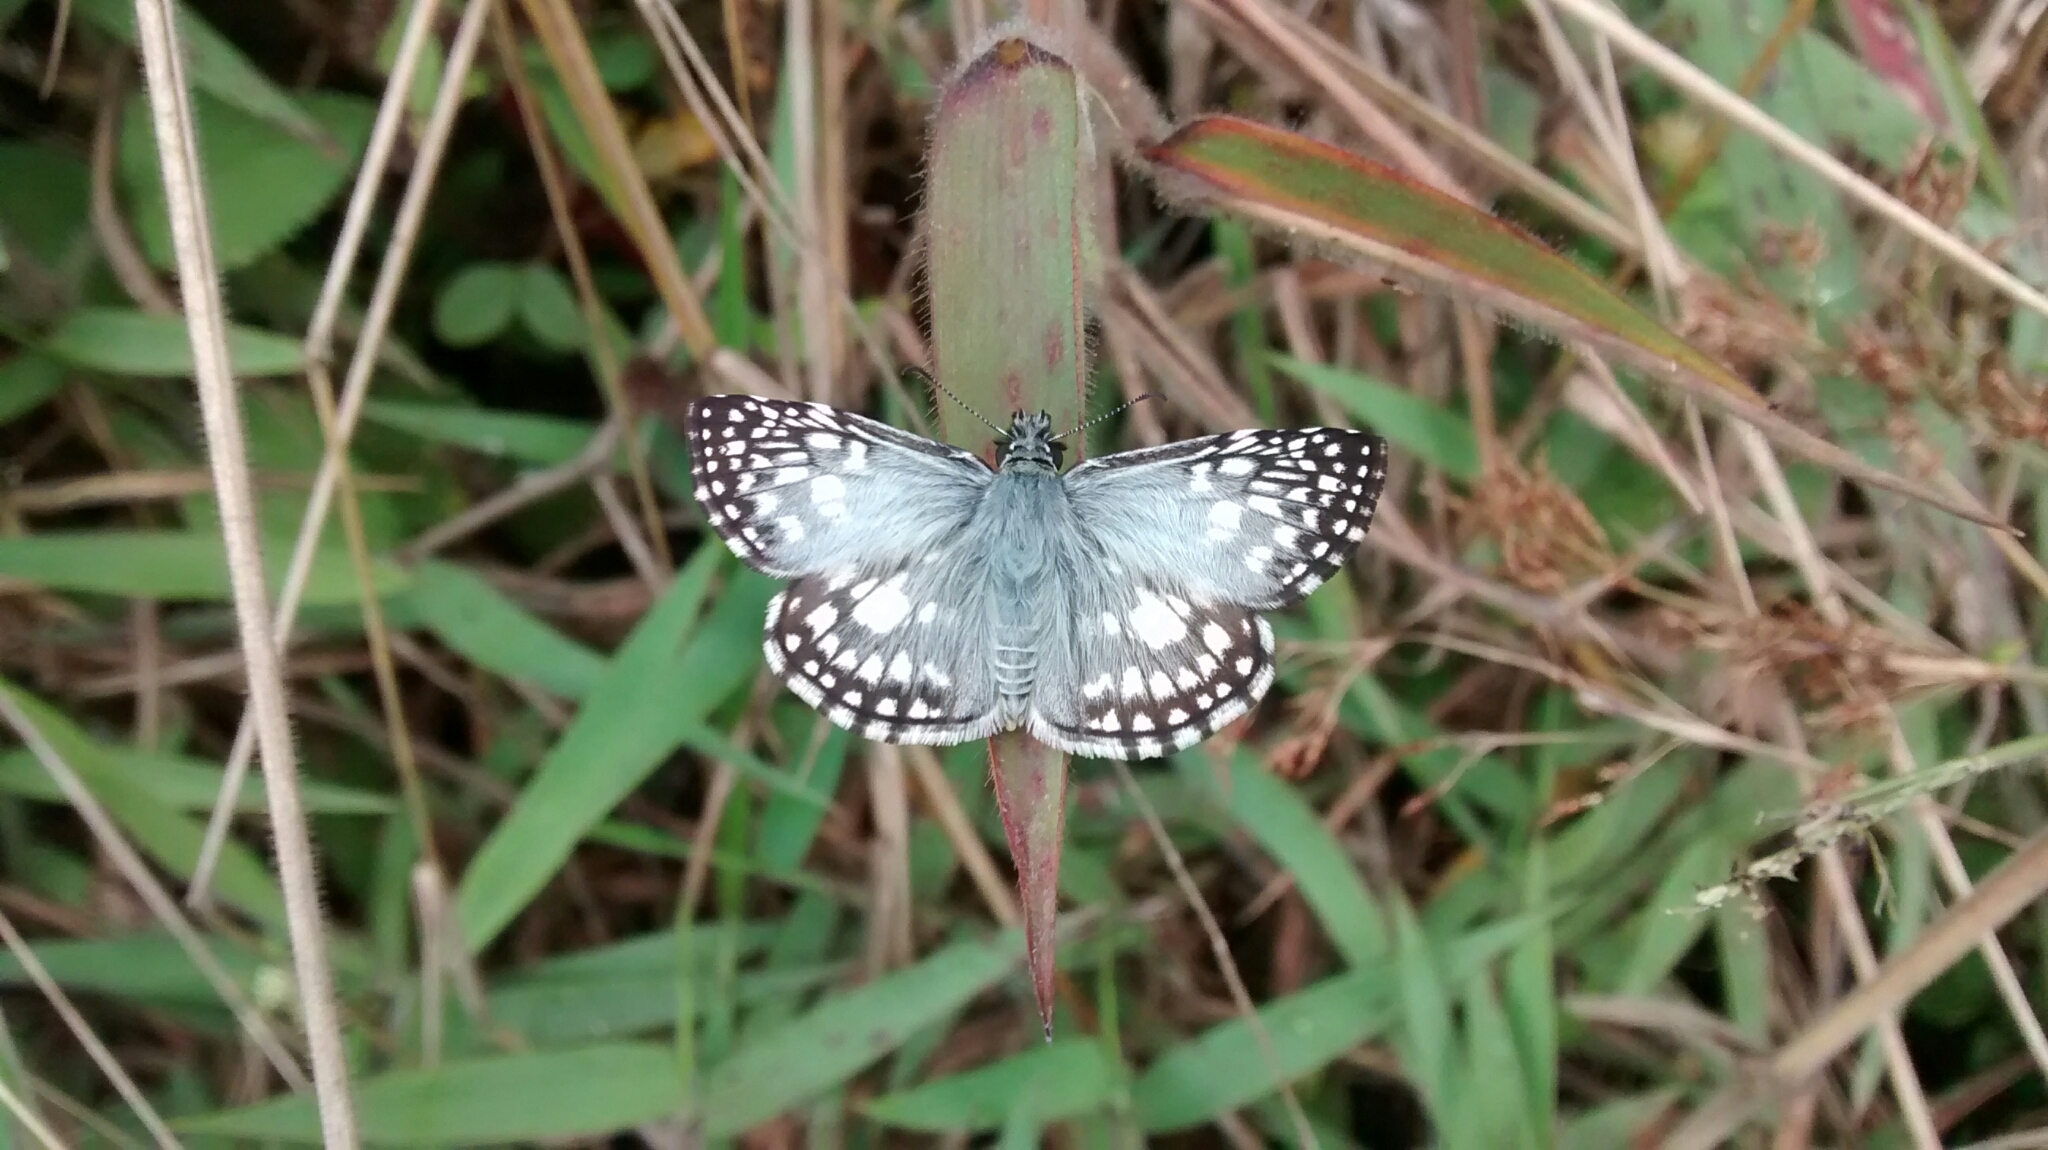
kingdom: Animalia
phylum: Arthropoda
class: Insecta
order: Lepidoptera
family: Hesperiidae
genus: Pyrgus
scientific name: Pyrgus oileus
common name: Tropical checkered-skipper
